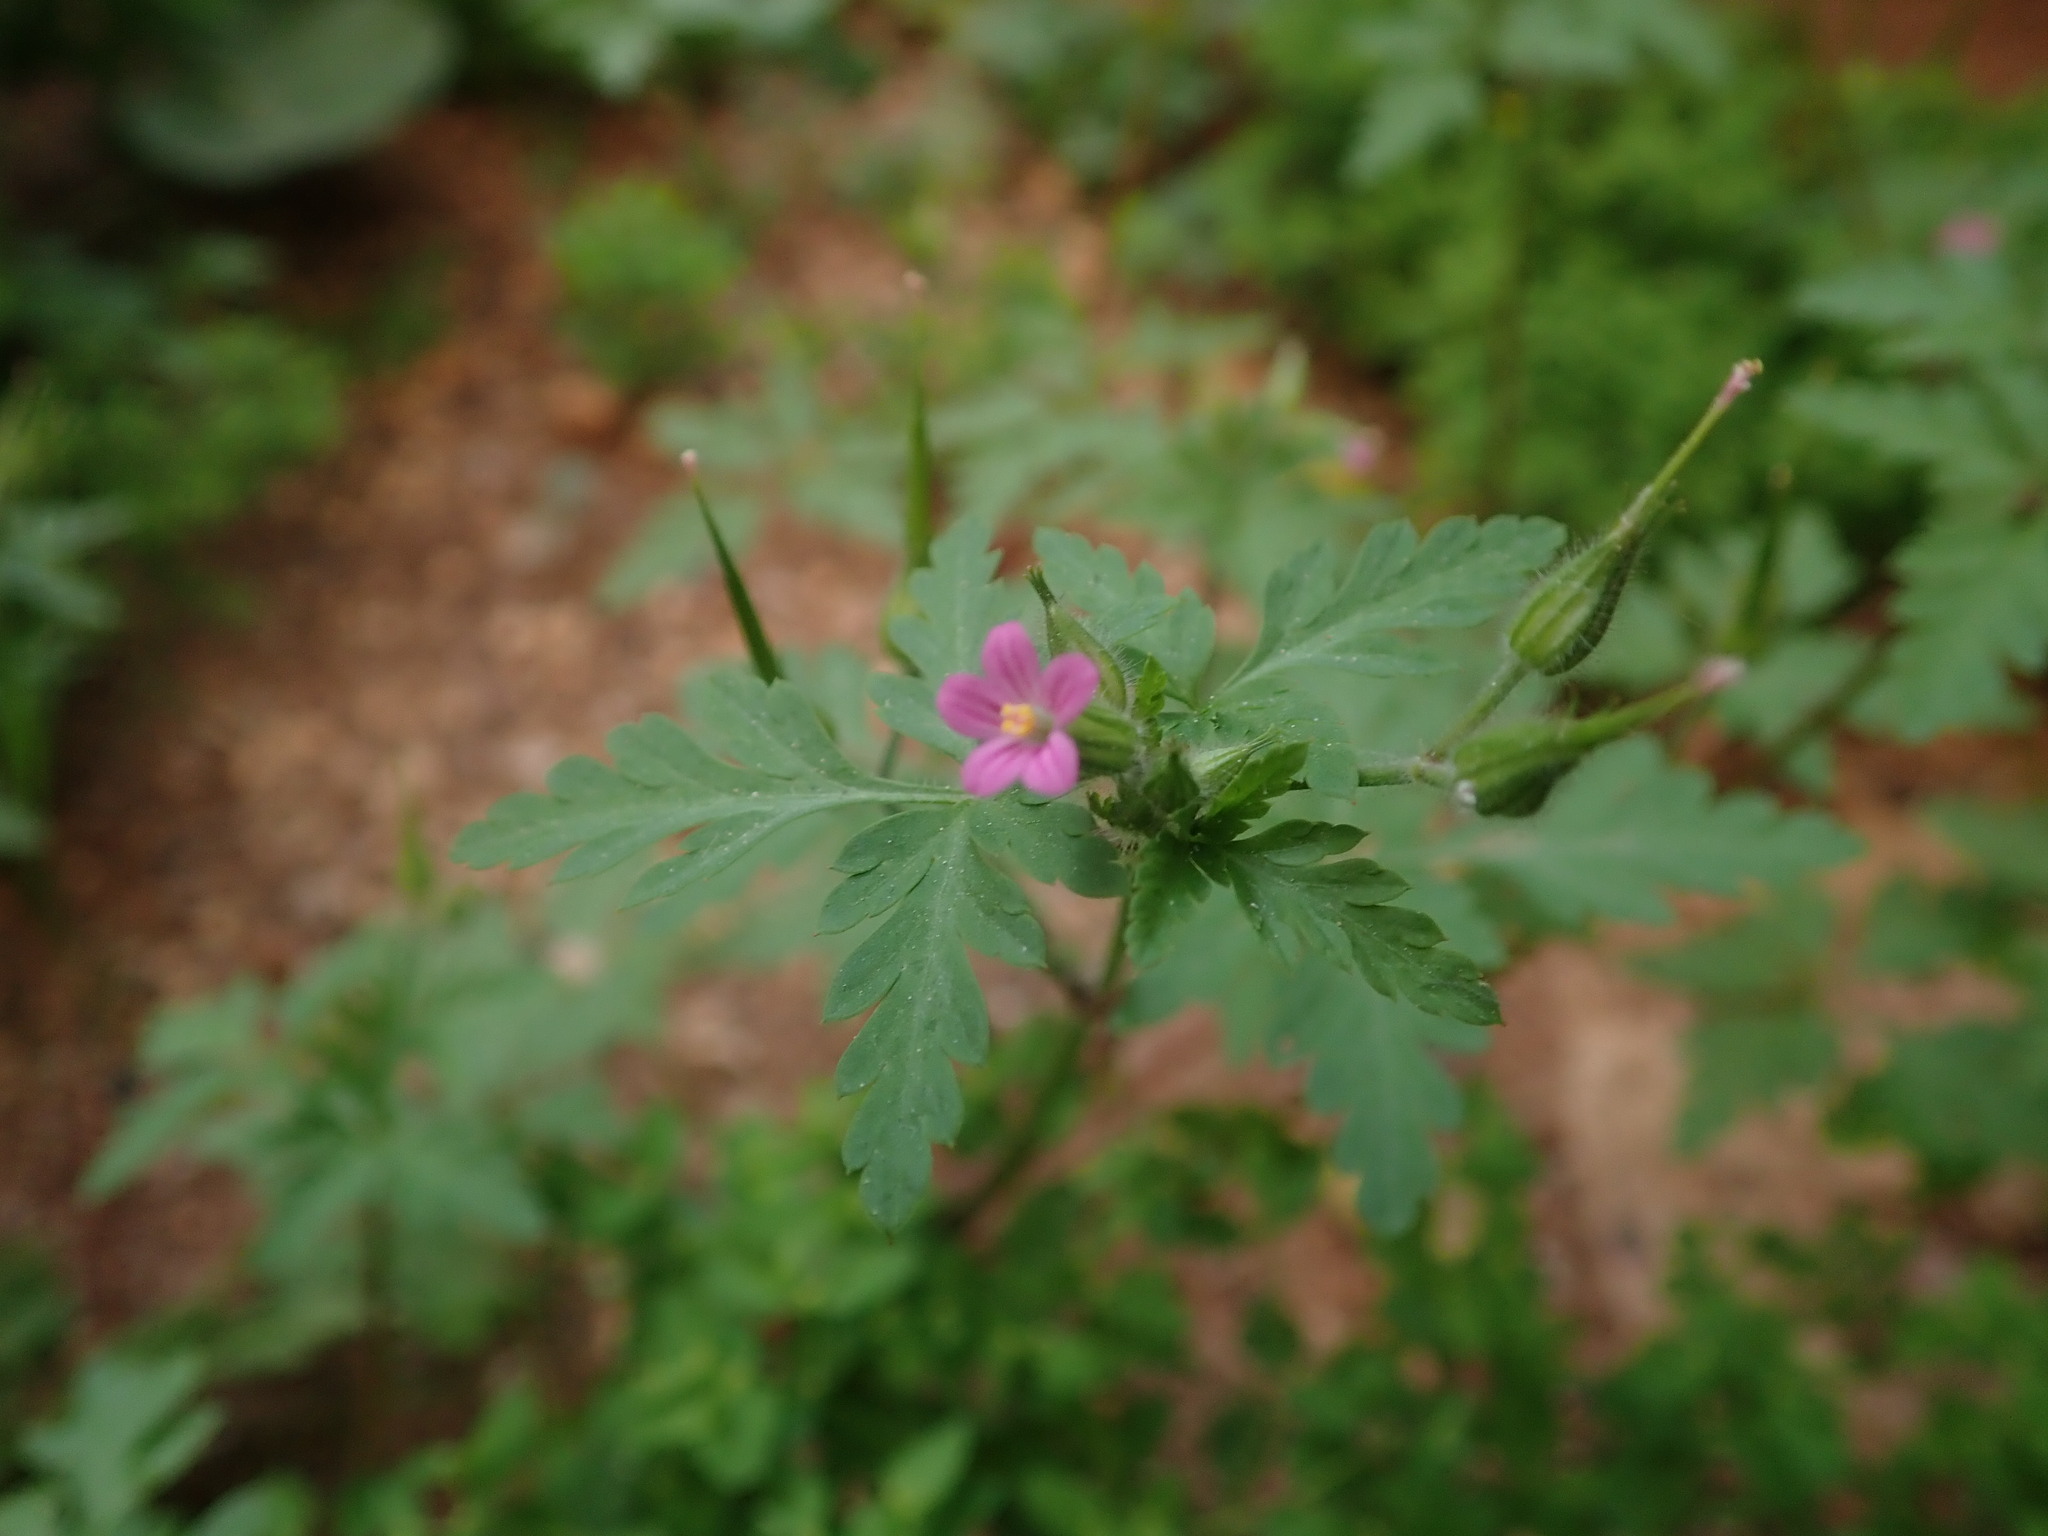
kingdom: Plantae
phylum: Tracheophyta
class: Magnoliopsida
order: Geraniales
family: Geraniaceae
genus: Geranium
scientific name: Geranium purpureum
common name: Little-robin
